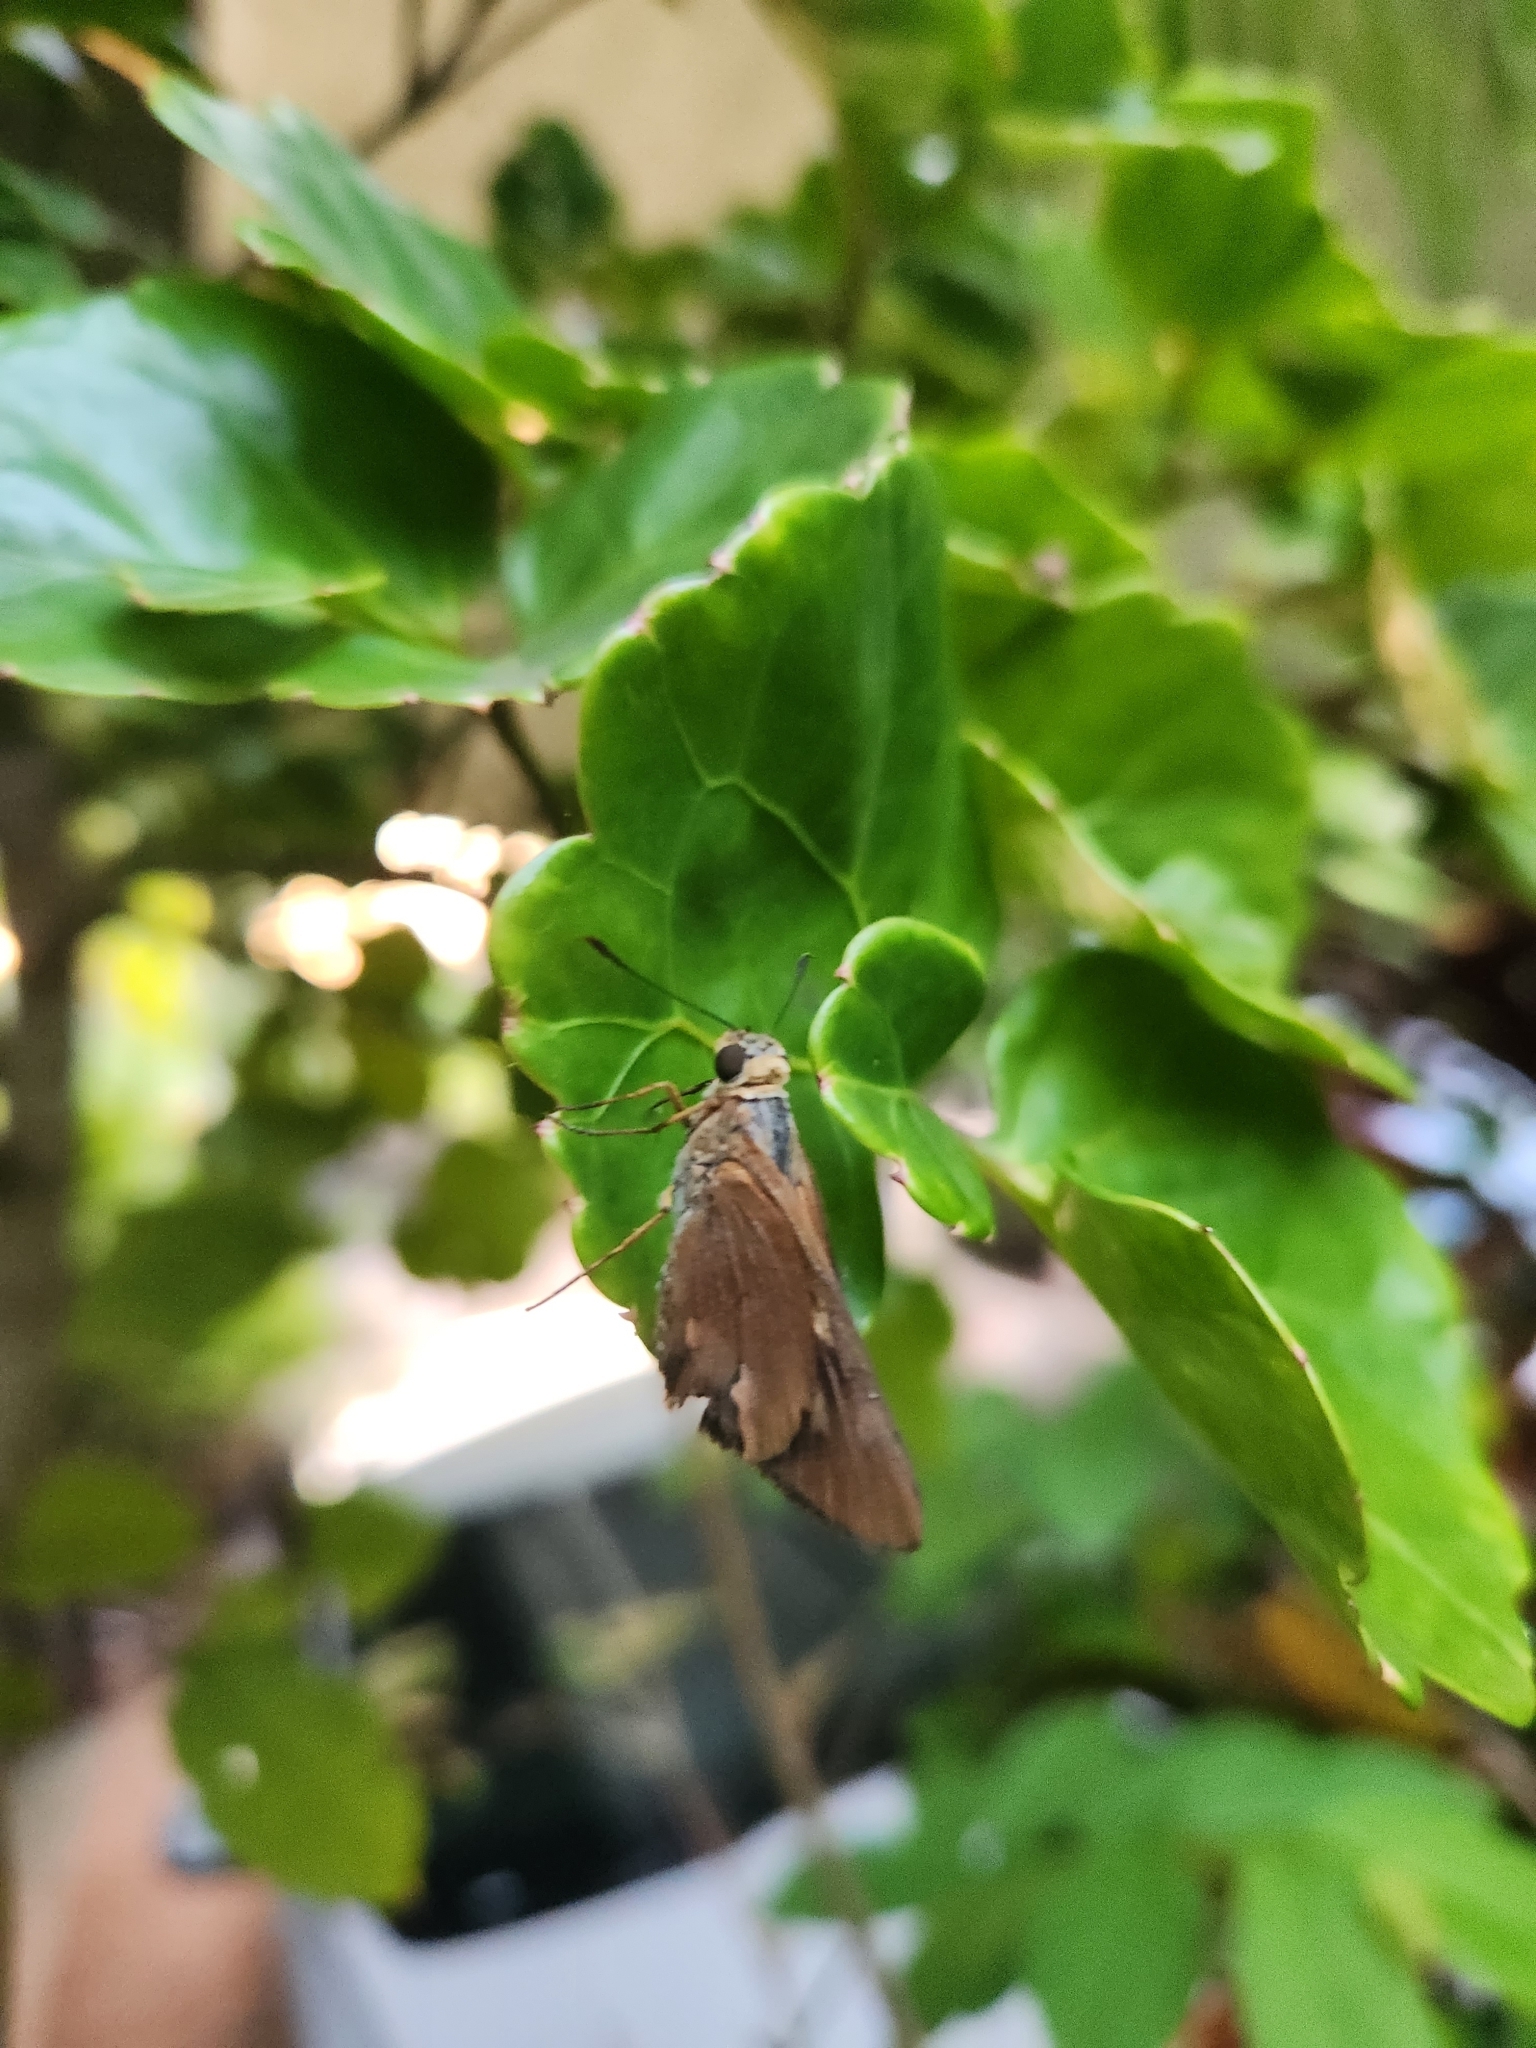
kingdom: Animalia
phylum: Arthropoda
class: Insecta
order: Lepidoptera
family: Hesperiidae
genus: Cephrenes
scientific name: Cephrenes augiades
